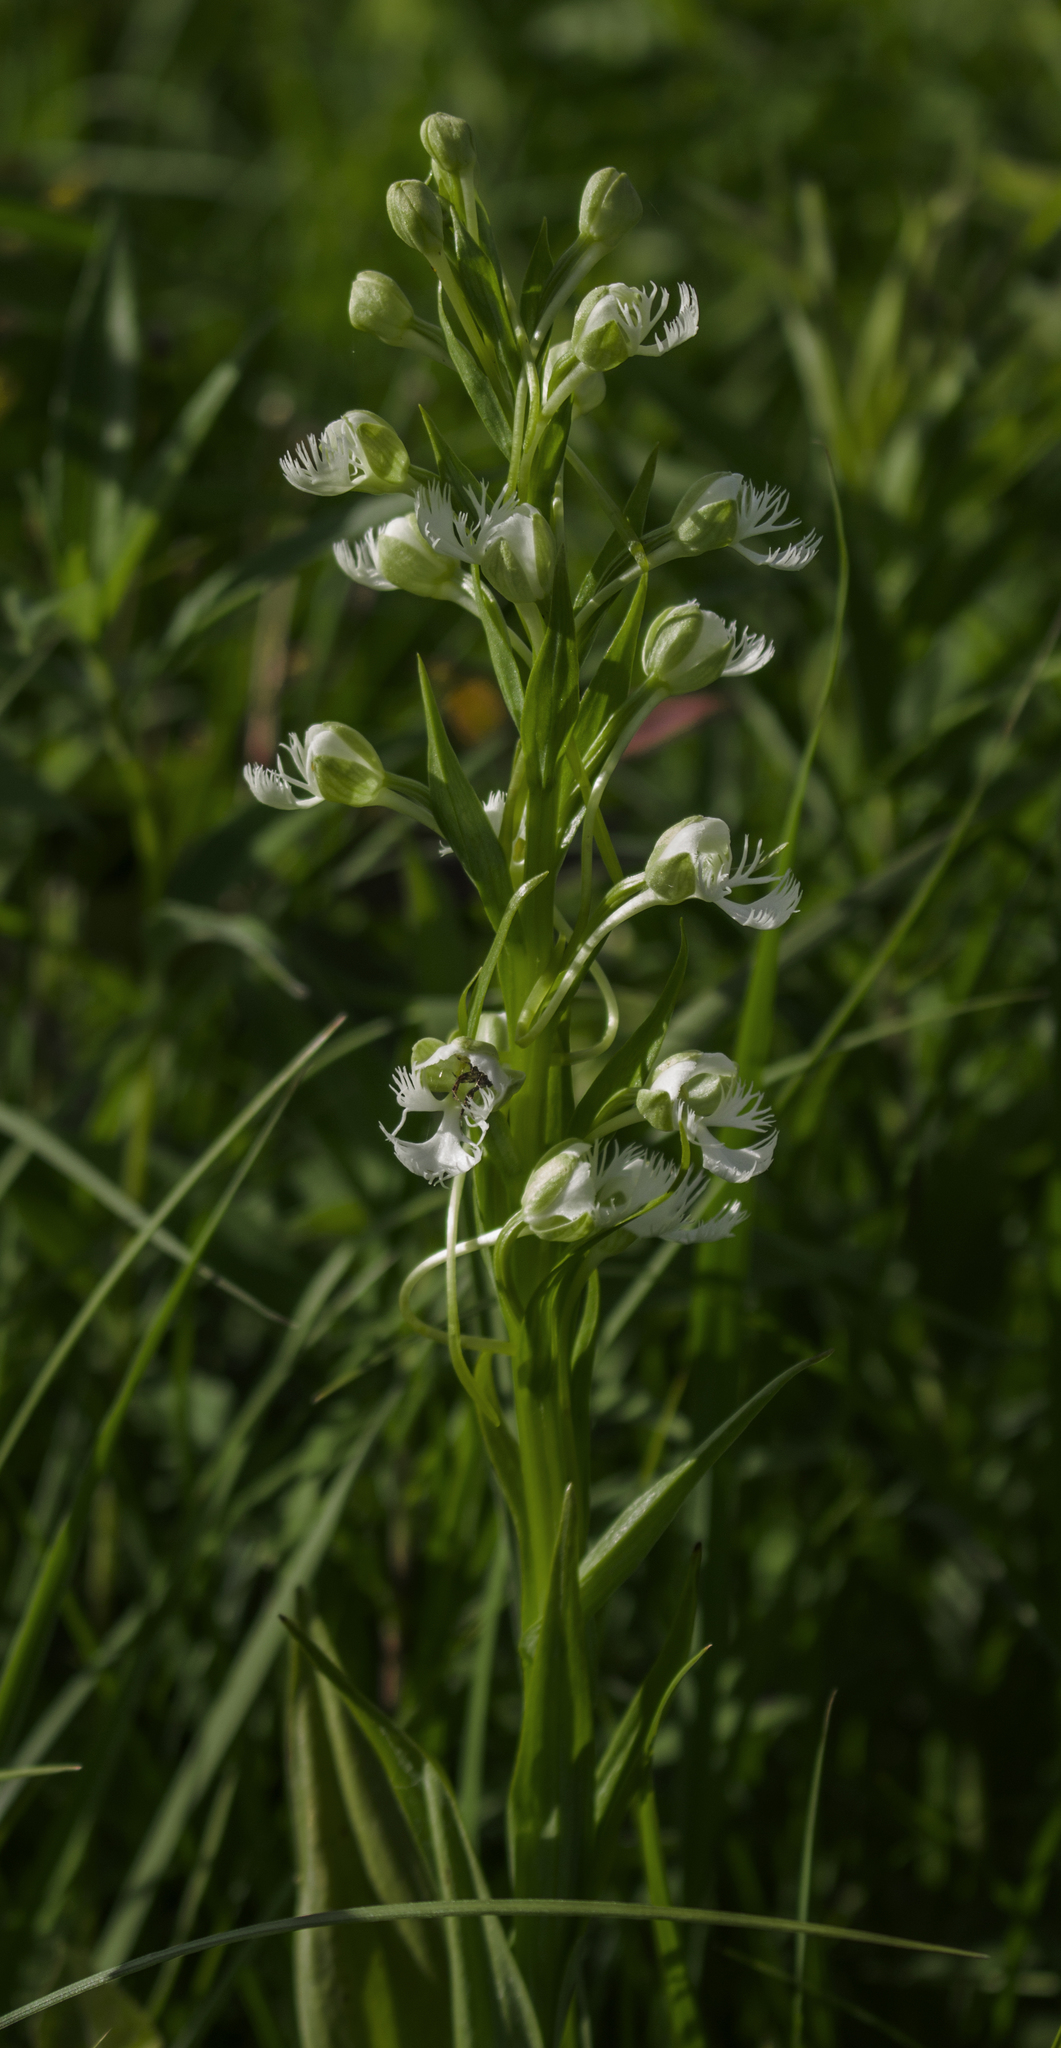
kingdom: Plantae
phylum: Tracheophyta
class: Liliopsida
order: Asparagales
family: Orchidaceae
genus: Platanthera
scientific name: Platanthera leucophaea
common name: Eastern prairie white-fringed orchid
